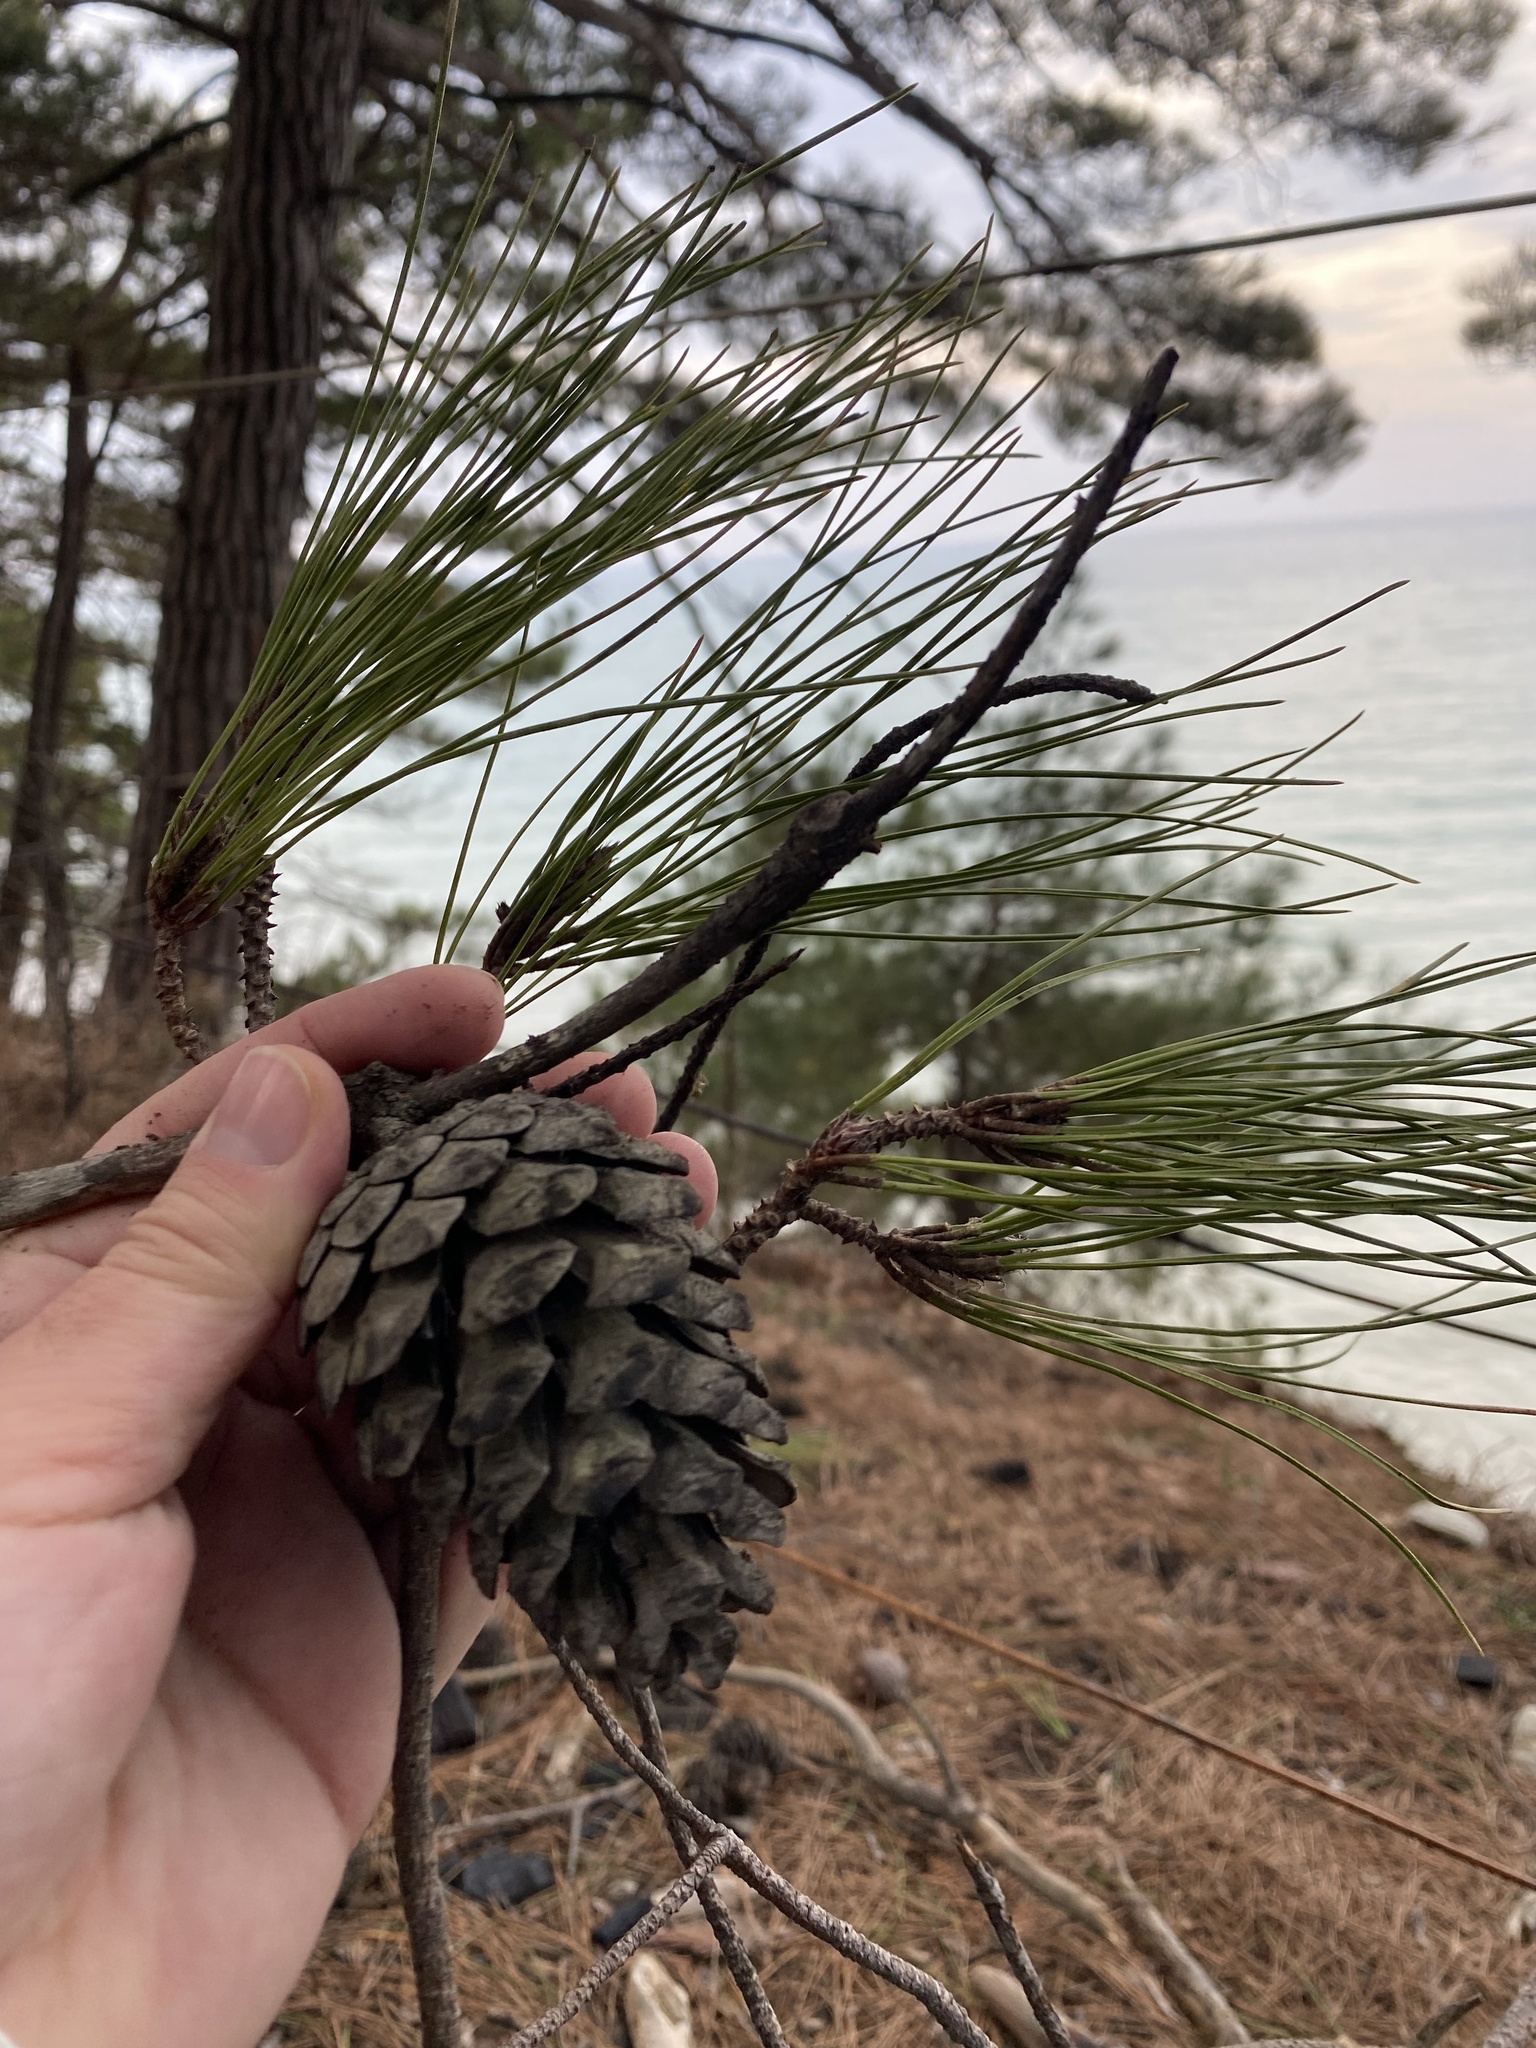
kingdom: Plantae
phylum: Tracheophyta
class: Pinopsida
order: Pinales
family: Pinaceae
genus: Pinus
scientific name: Pinus brutia
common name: Turkish pine
